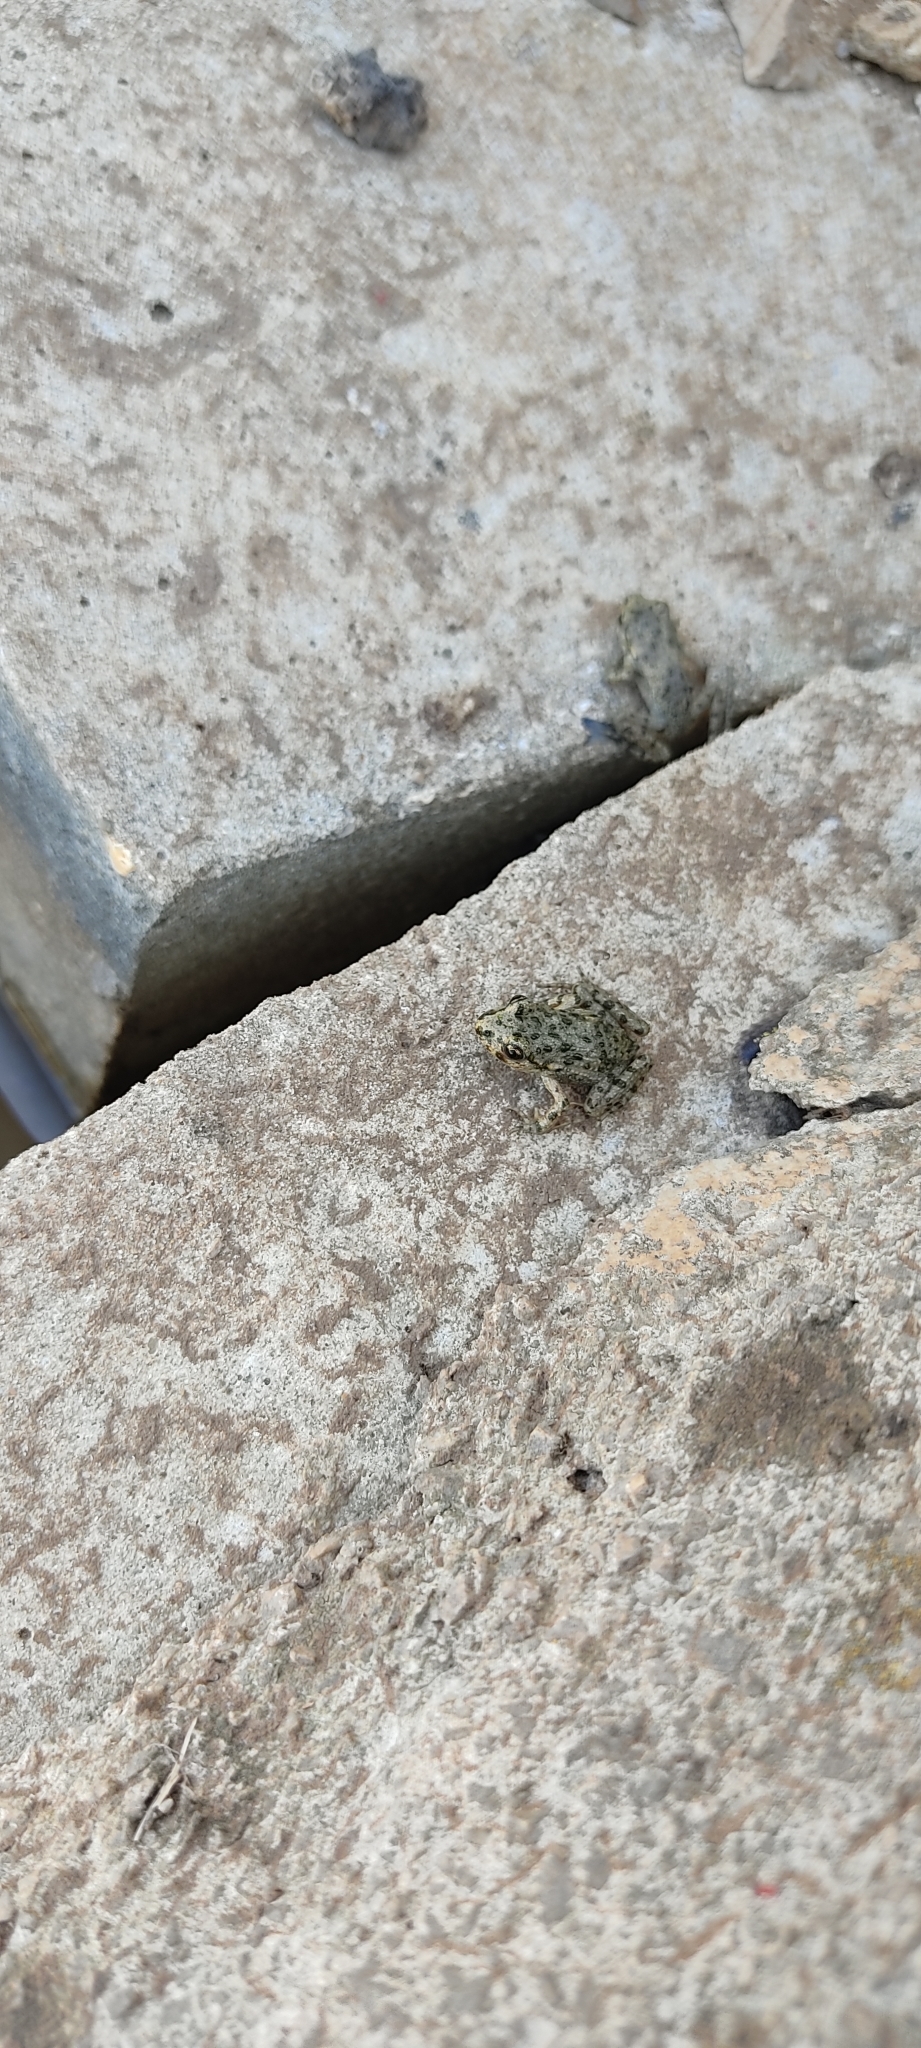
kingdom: Animalia
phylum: Chordata
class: Amphibia
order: Anura
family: Pelodytidae
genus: Pelodytes
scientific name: Pelodytes punctatus
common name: Parsley frog
